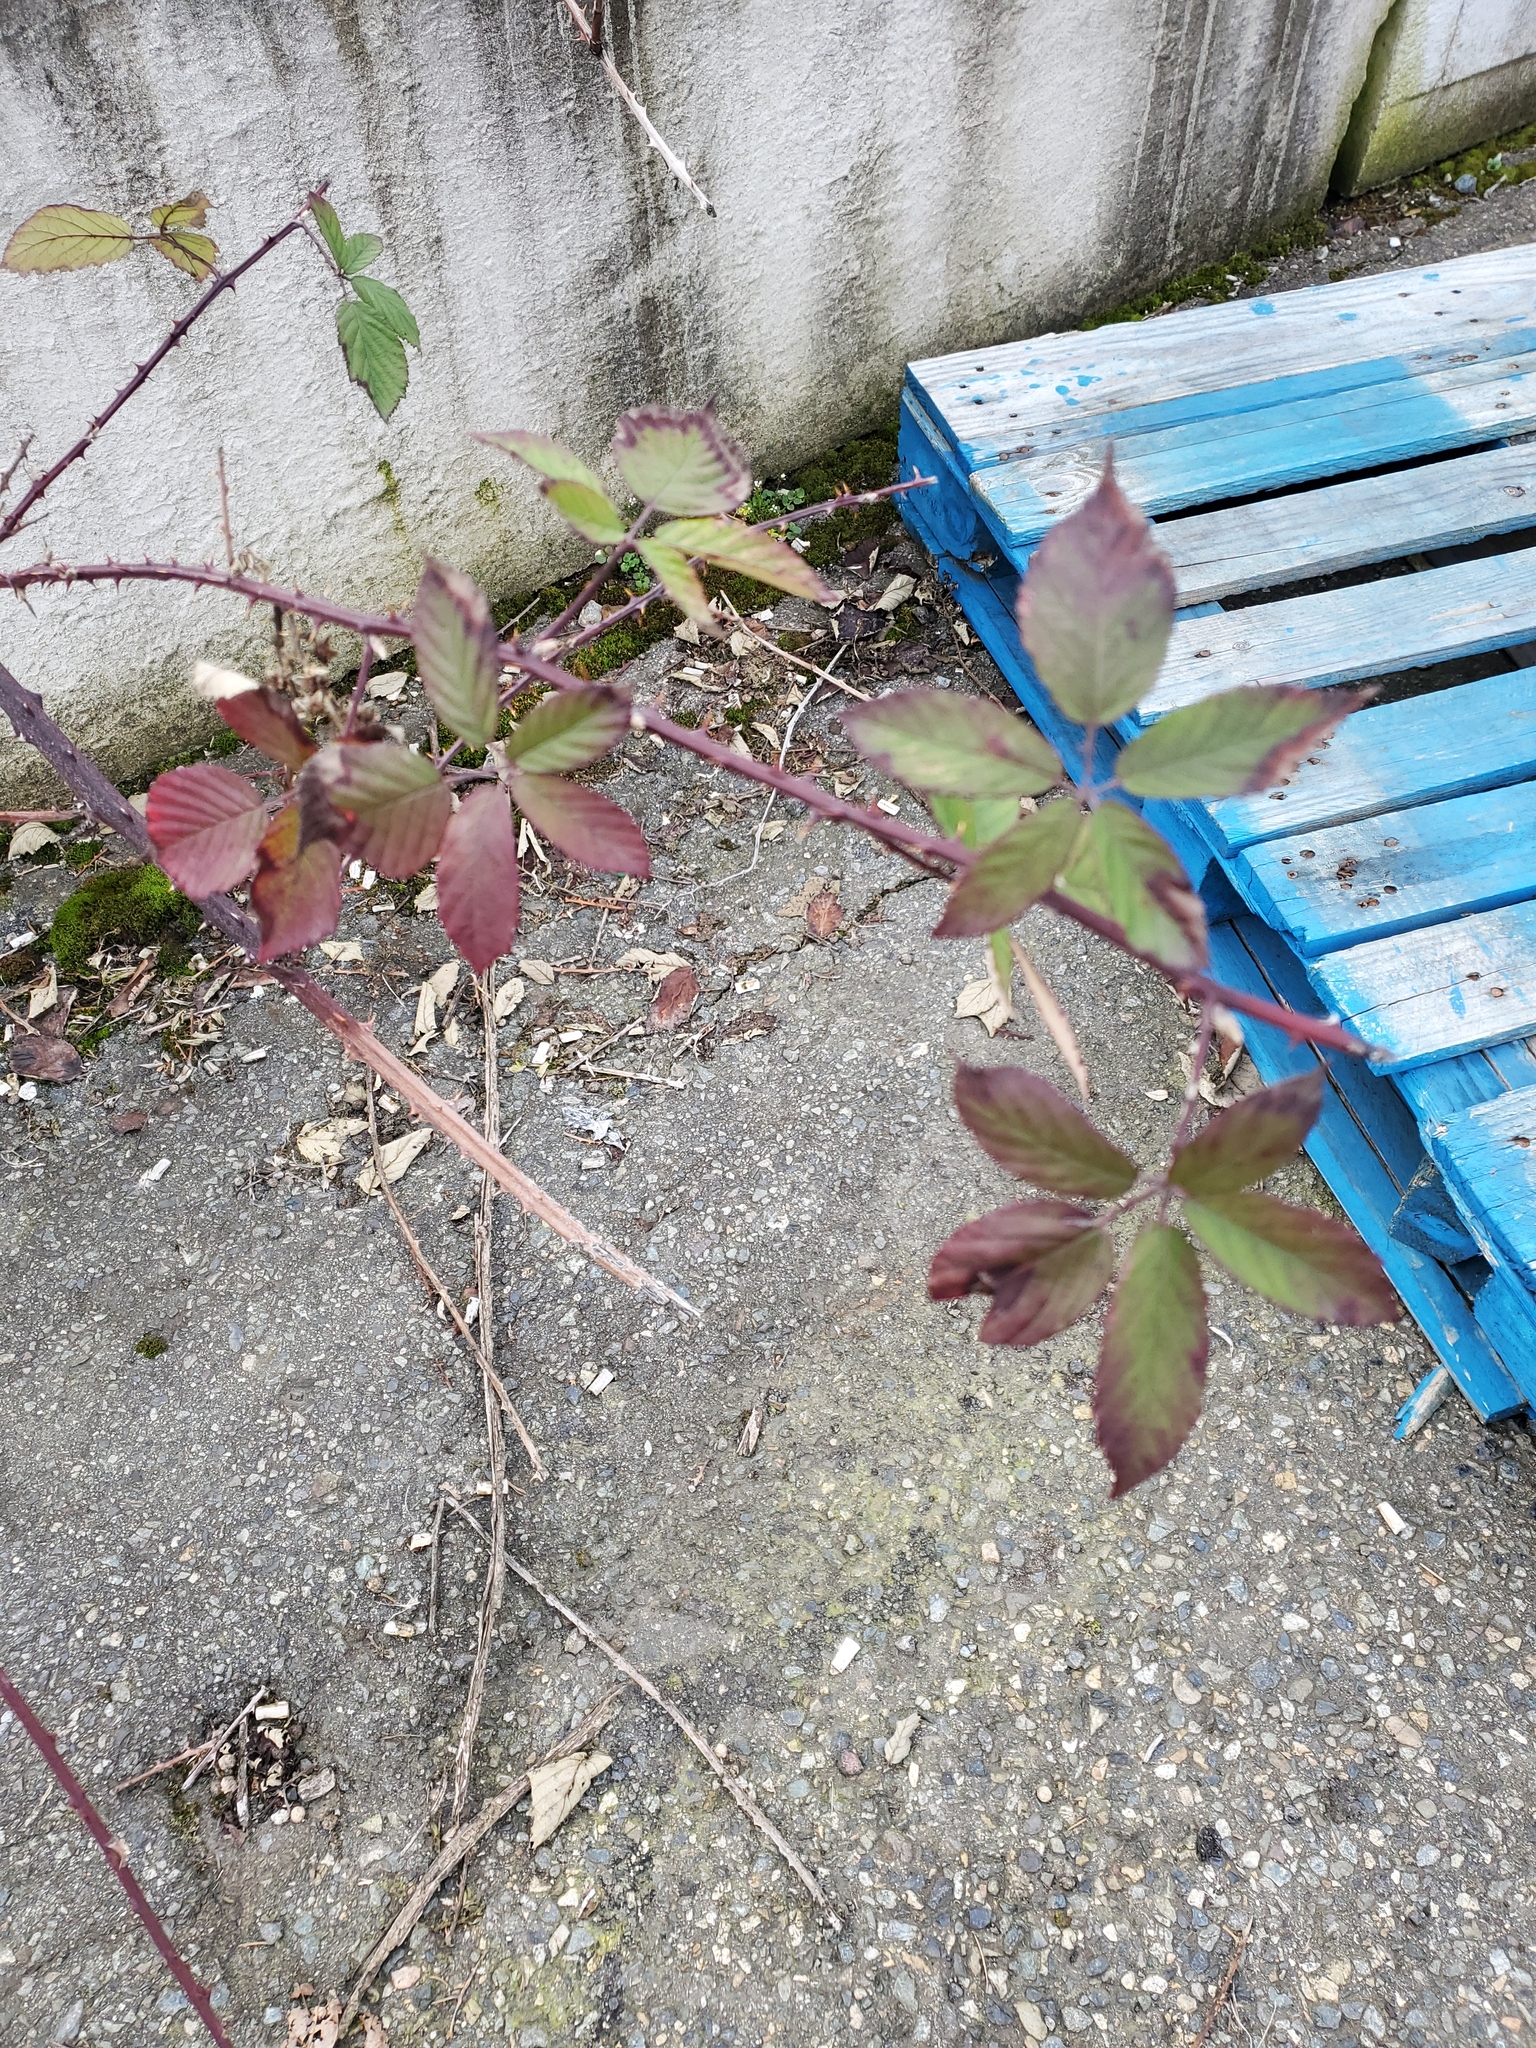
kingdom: Plantae
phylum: Tracheophyta
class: Magnoliopsida
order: Rosales
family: Rosaceae
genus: Rubus
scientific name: Rubus bifrons
